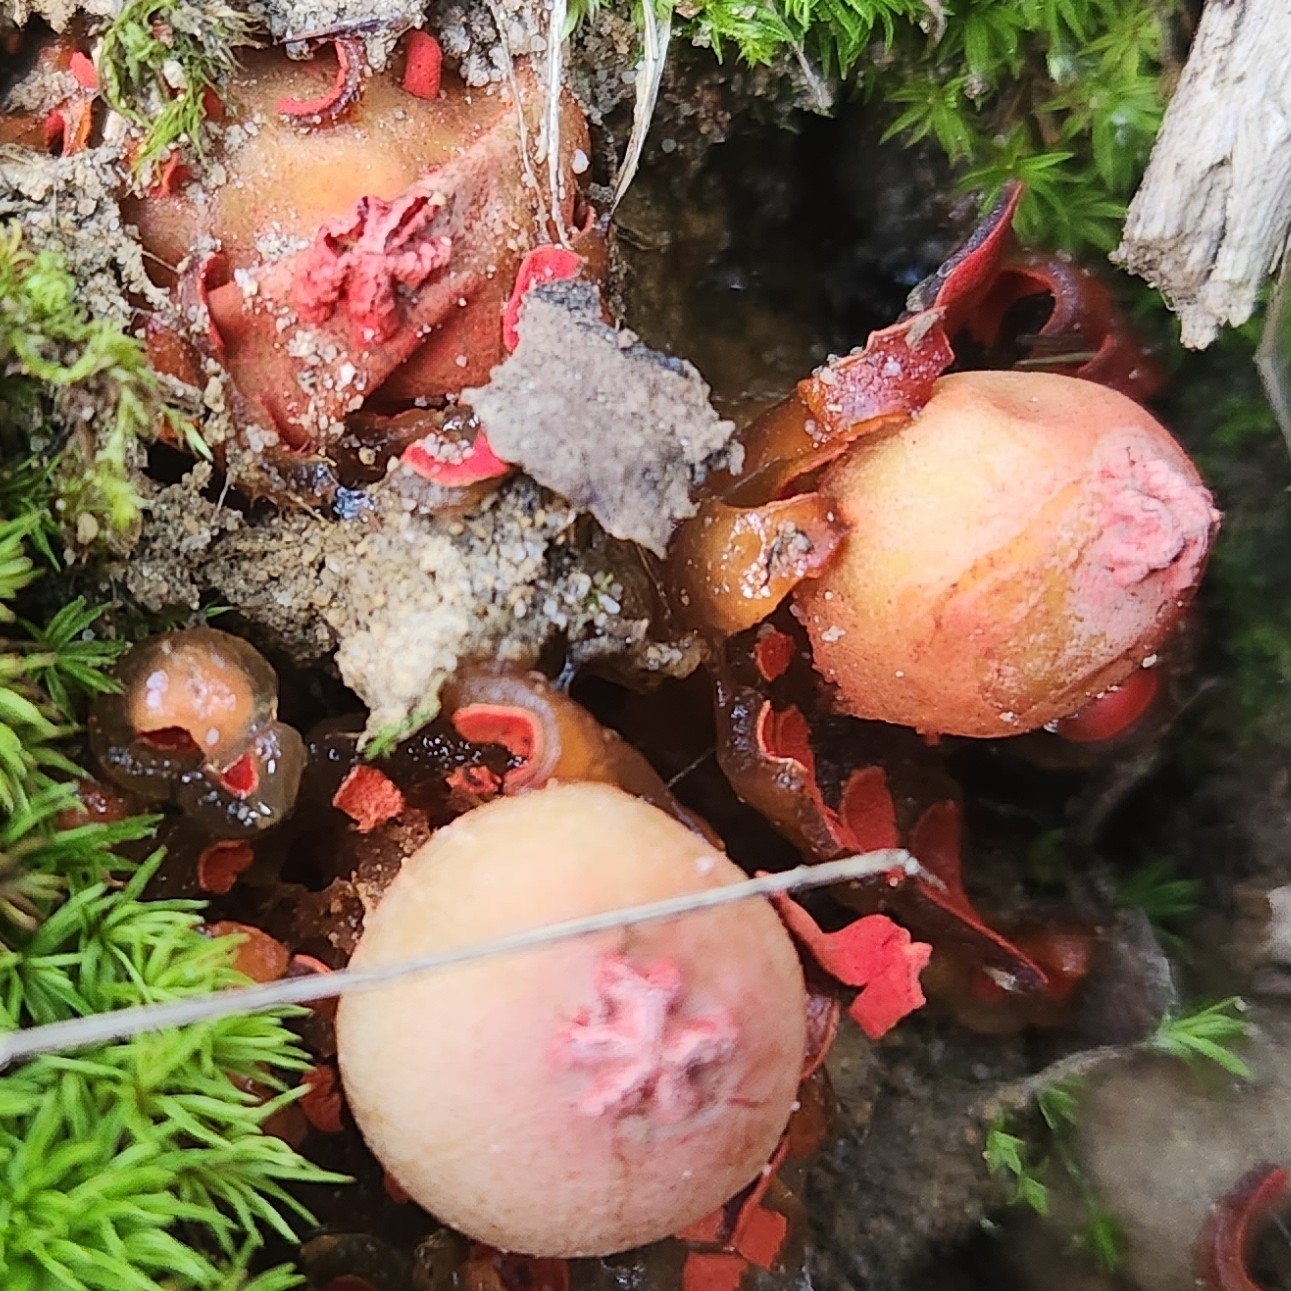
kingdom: Fungi
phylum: Basidiomycota
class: Agaricomycetes
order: Boletales
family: Calostomataceae
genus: Calostoma
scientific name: Calostoma cinnabarinum
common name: Stalked puffball-in-aspic
